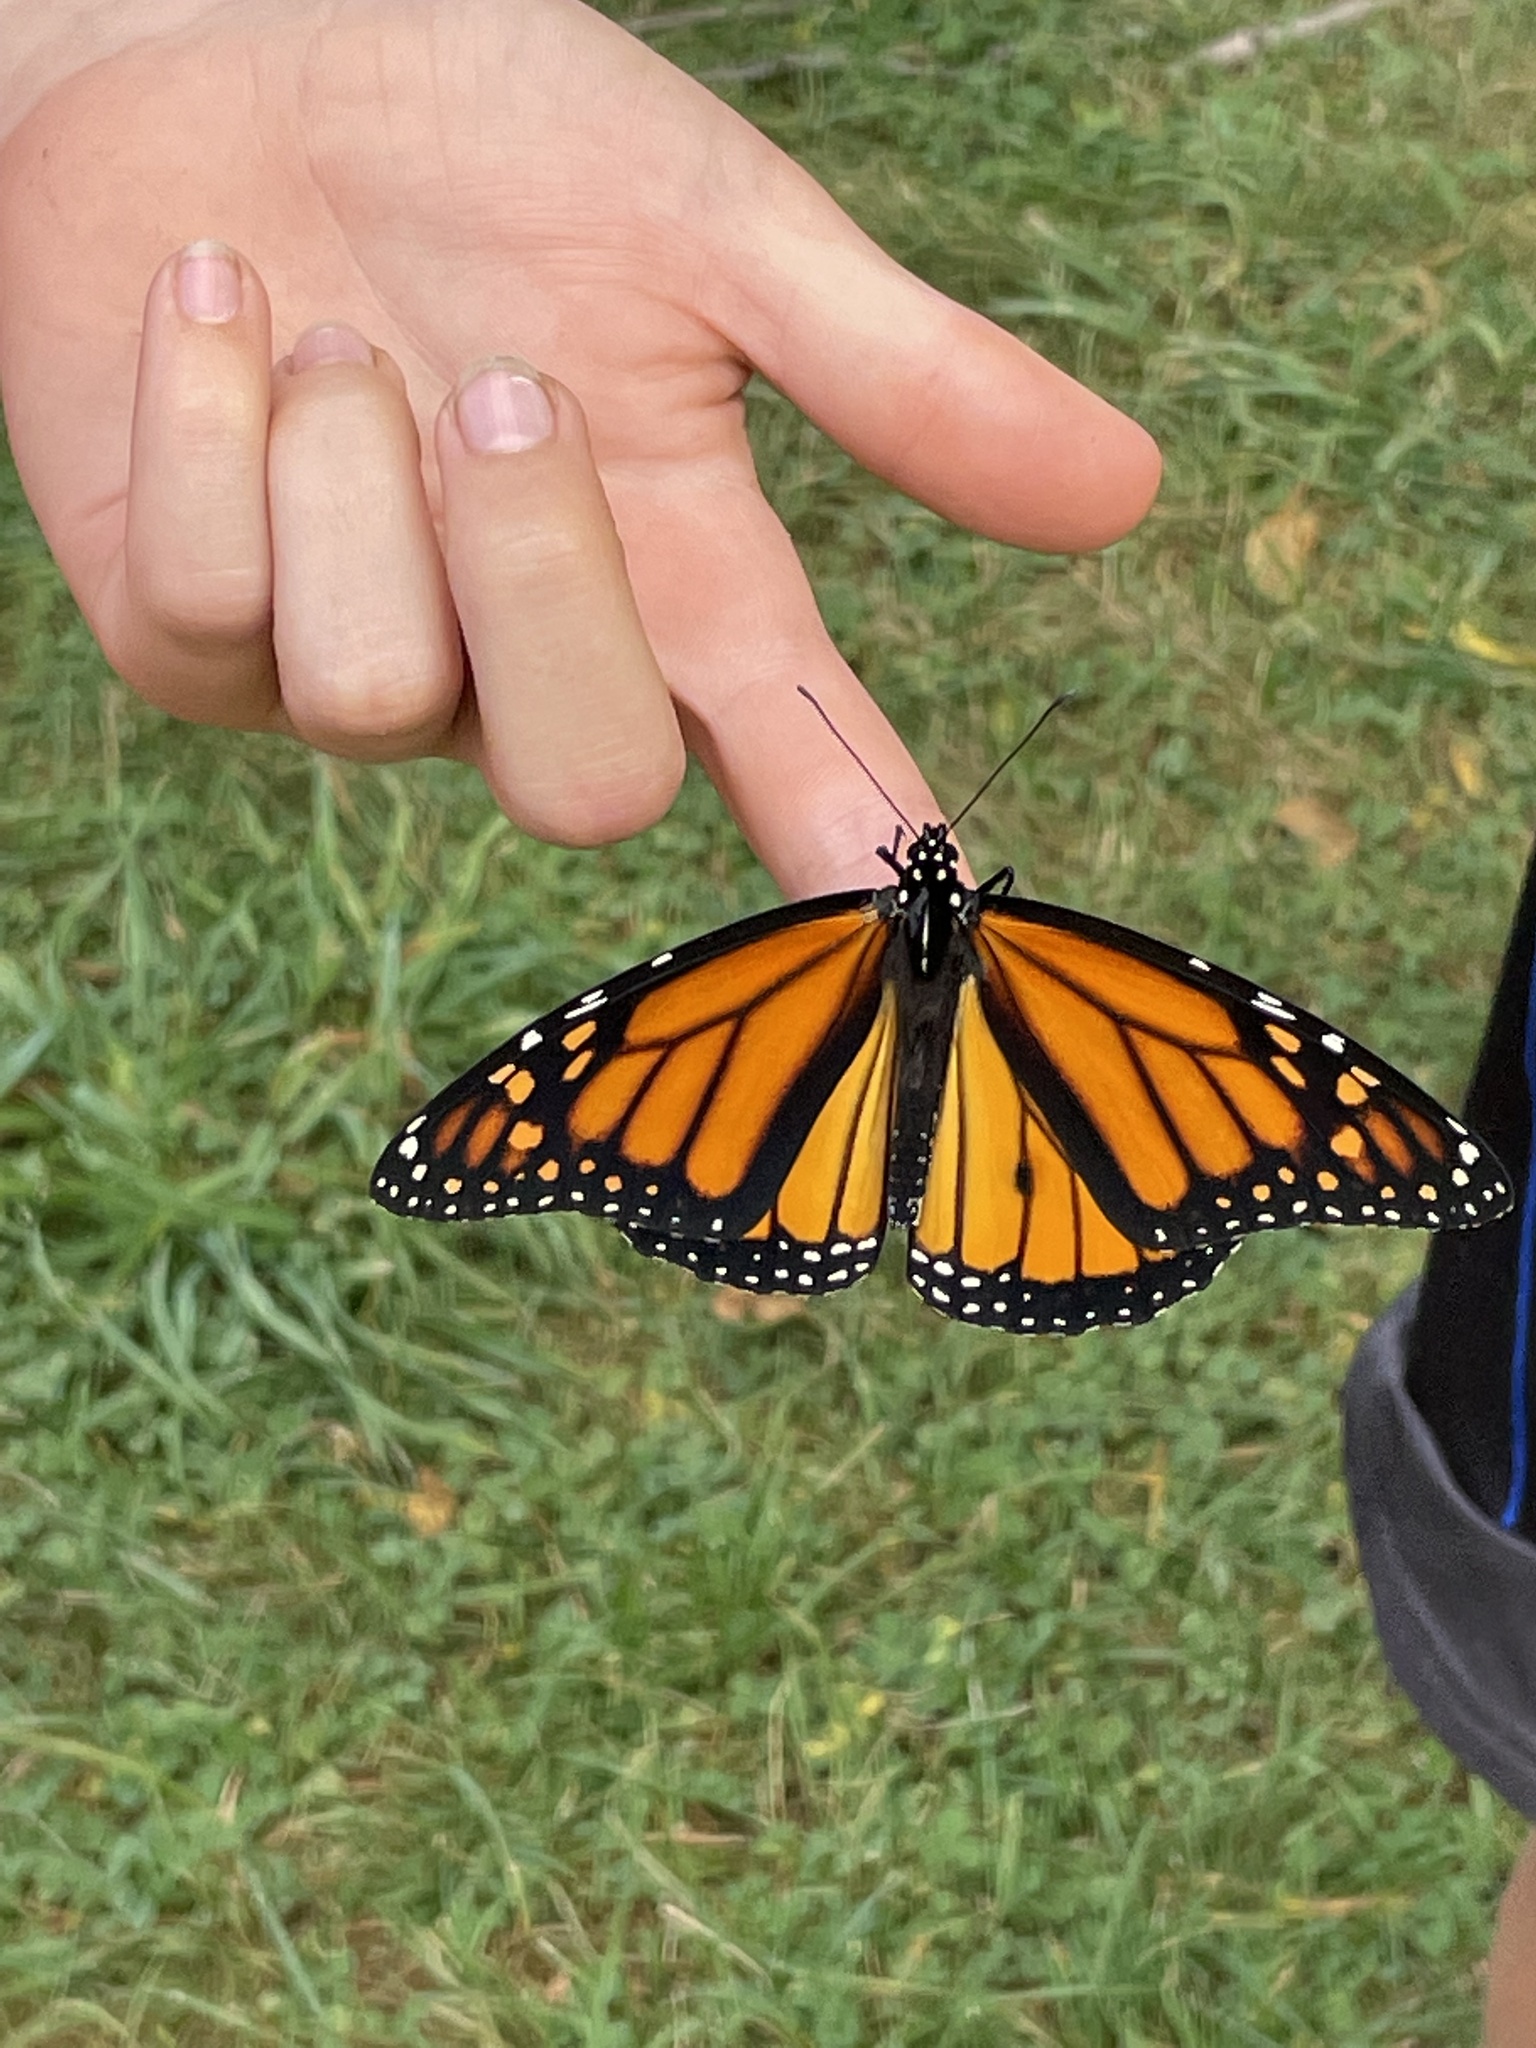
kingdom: Animalia
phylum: Arthropoda
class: Insecta
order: Lepidoptera
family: Nymphalidae
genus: Danaus
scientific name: Danaus plexippus
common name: Monarch
